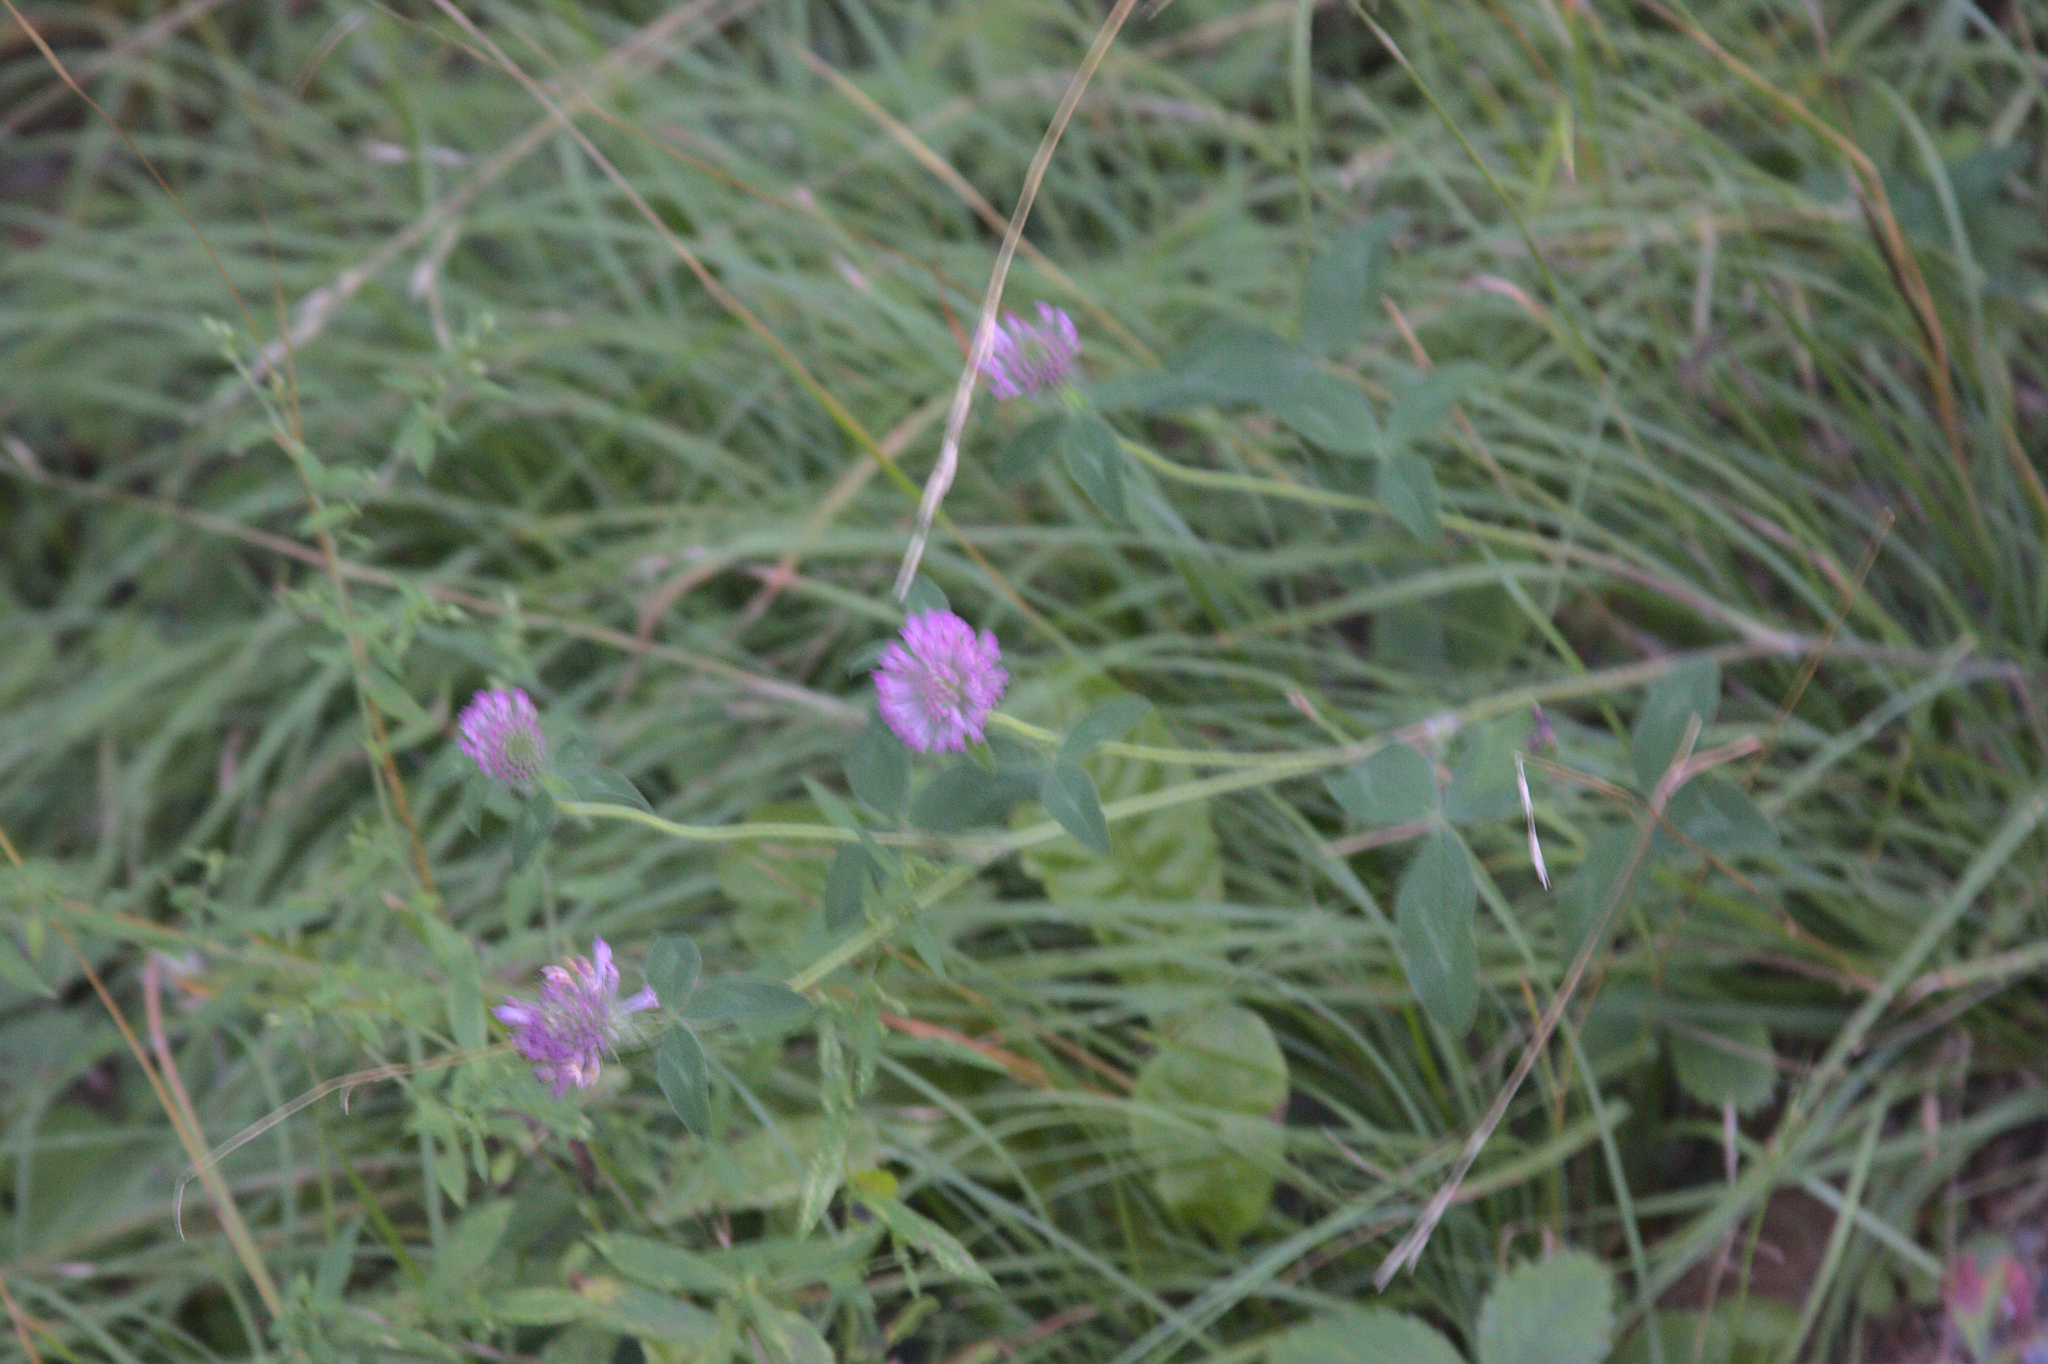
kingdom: Plantae
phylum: Tracheophyta
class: Magnoliopsida
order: Fabales
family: Fabaceae
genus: Trifolium
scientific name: Trifolium pratense
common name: Red clover
